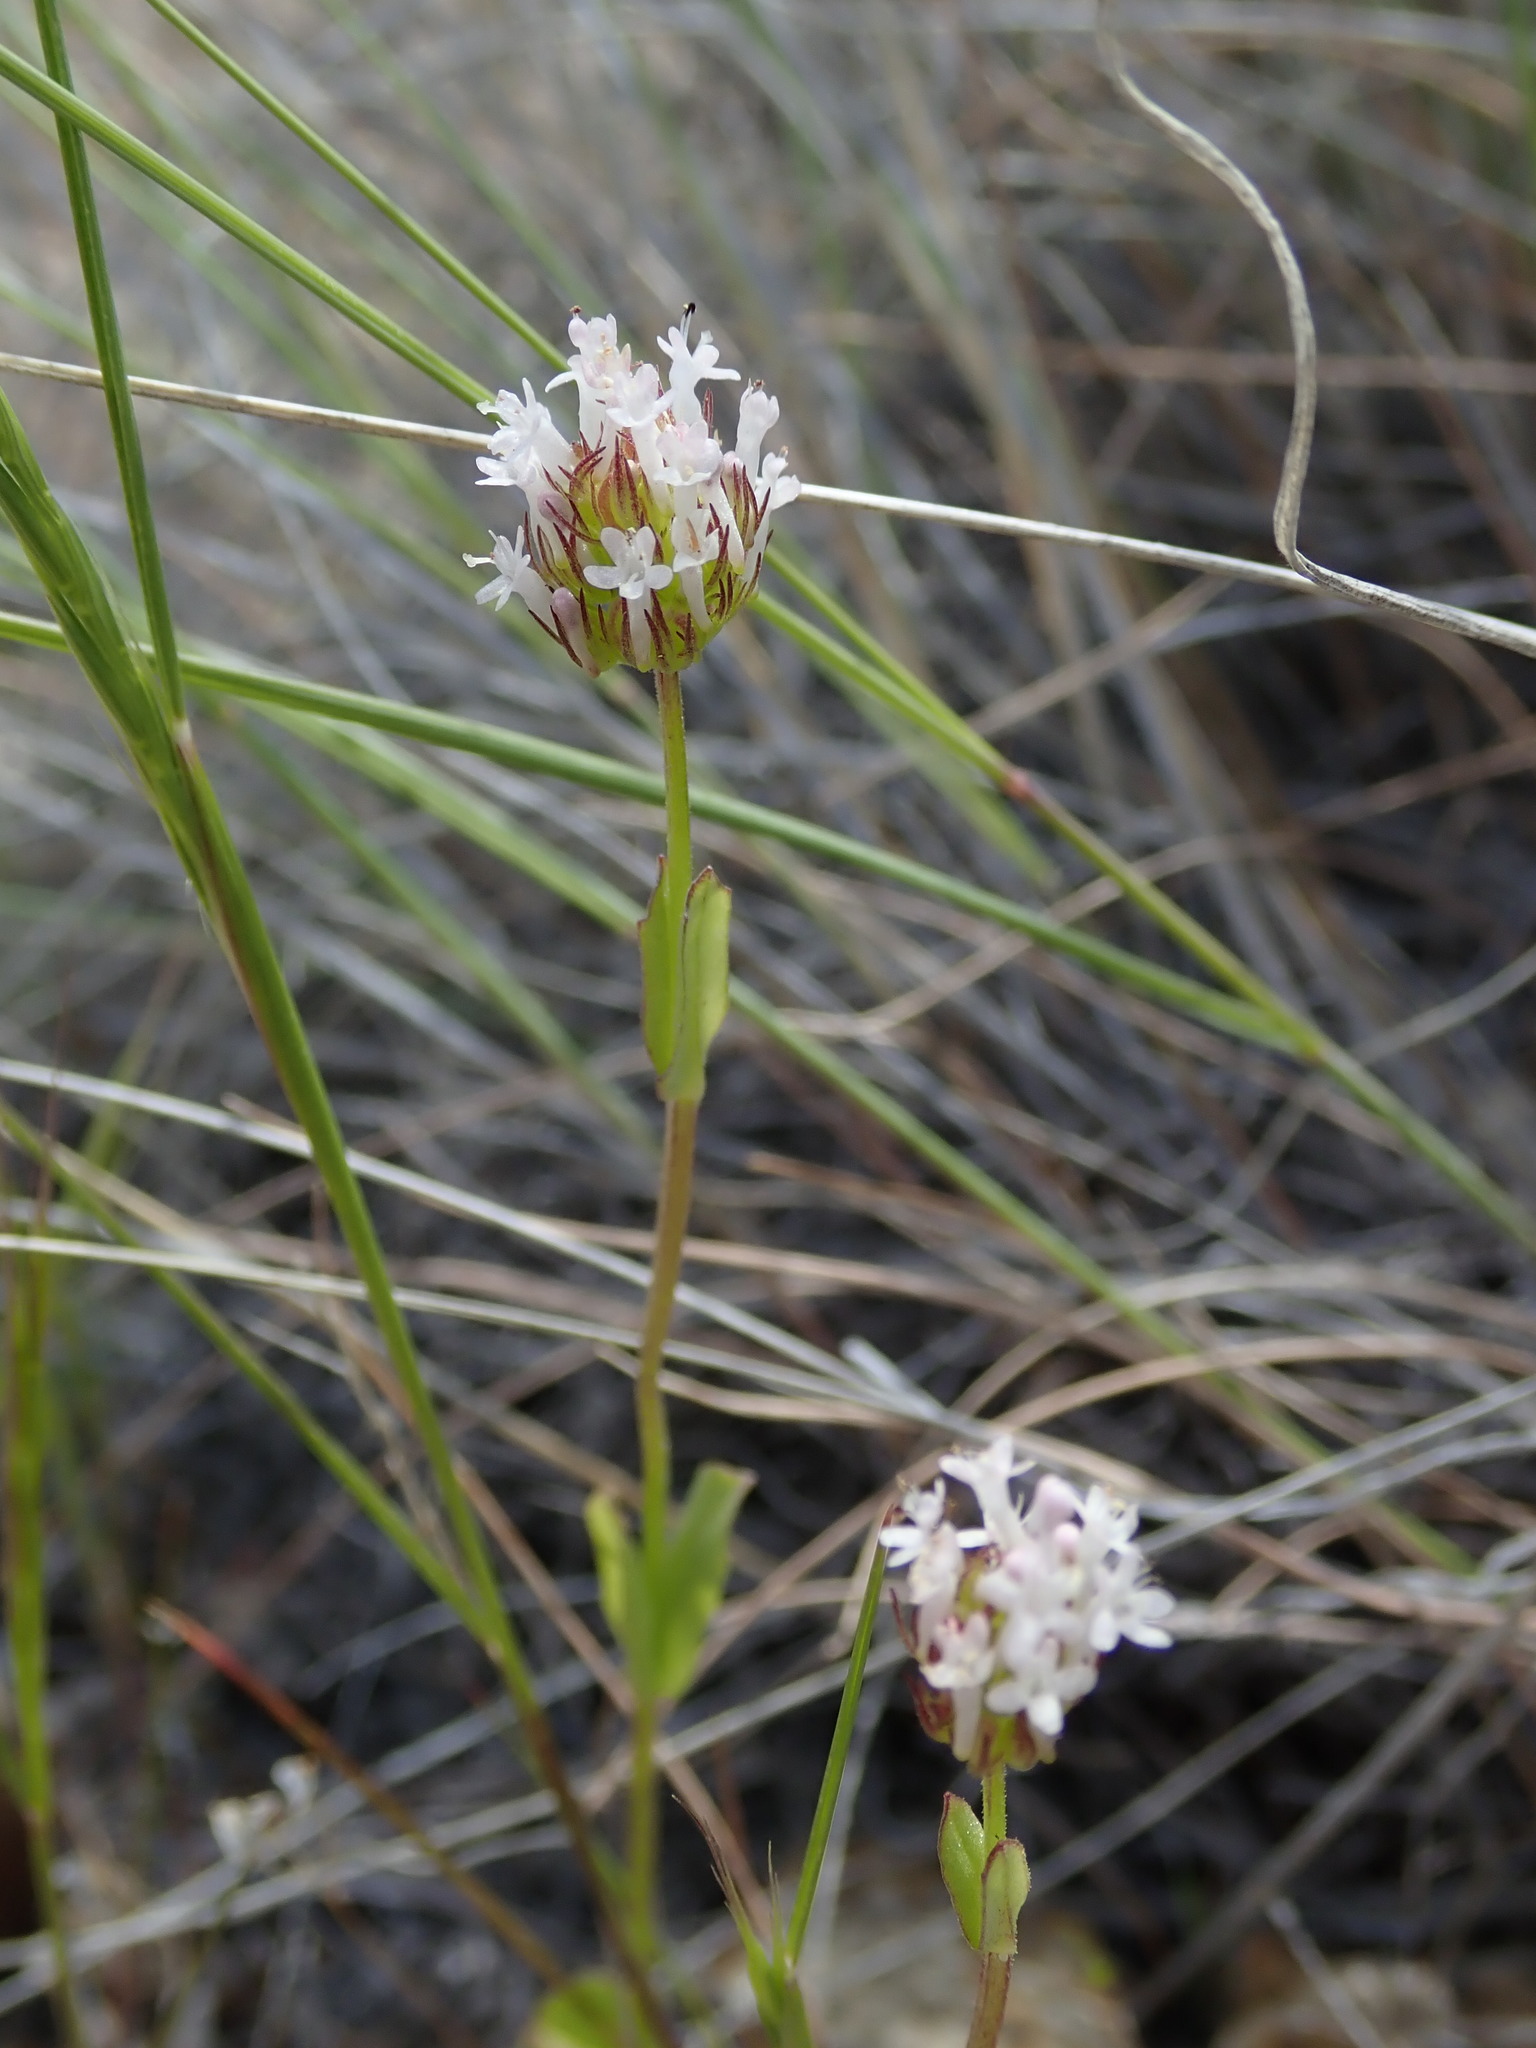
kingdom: Plantae
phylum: Tracheophyta
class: Magnoliopsida
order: Dipsacales
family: Caprifoliaceae
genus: Plectritis
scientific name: Plectritis macroptera
